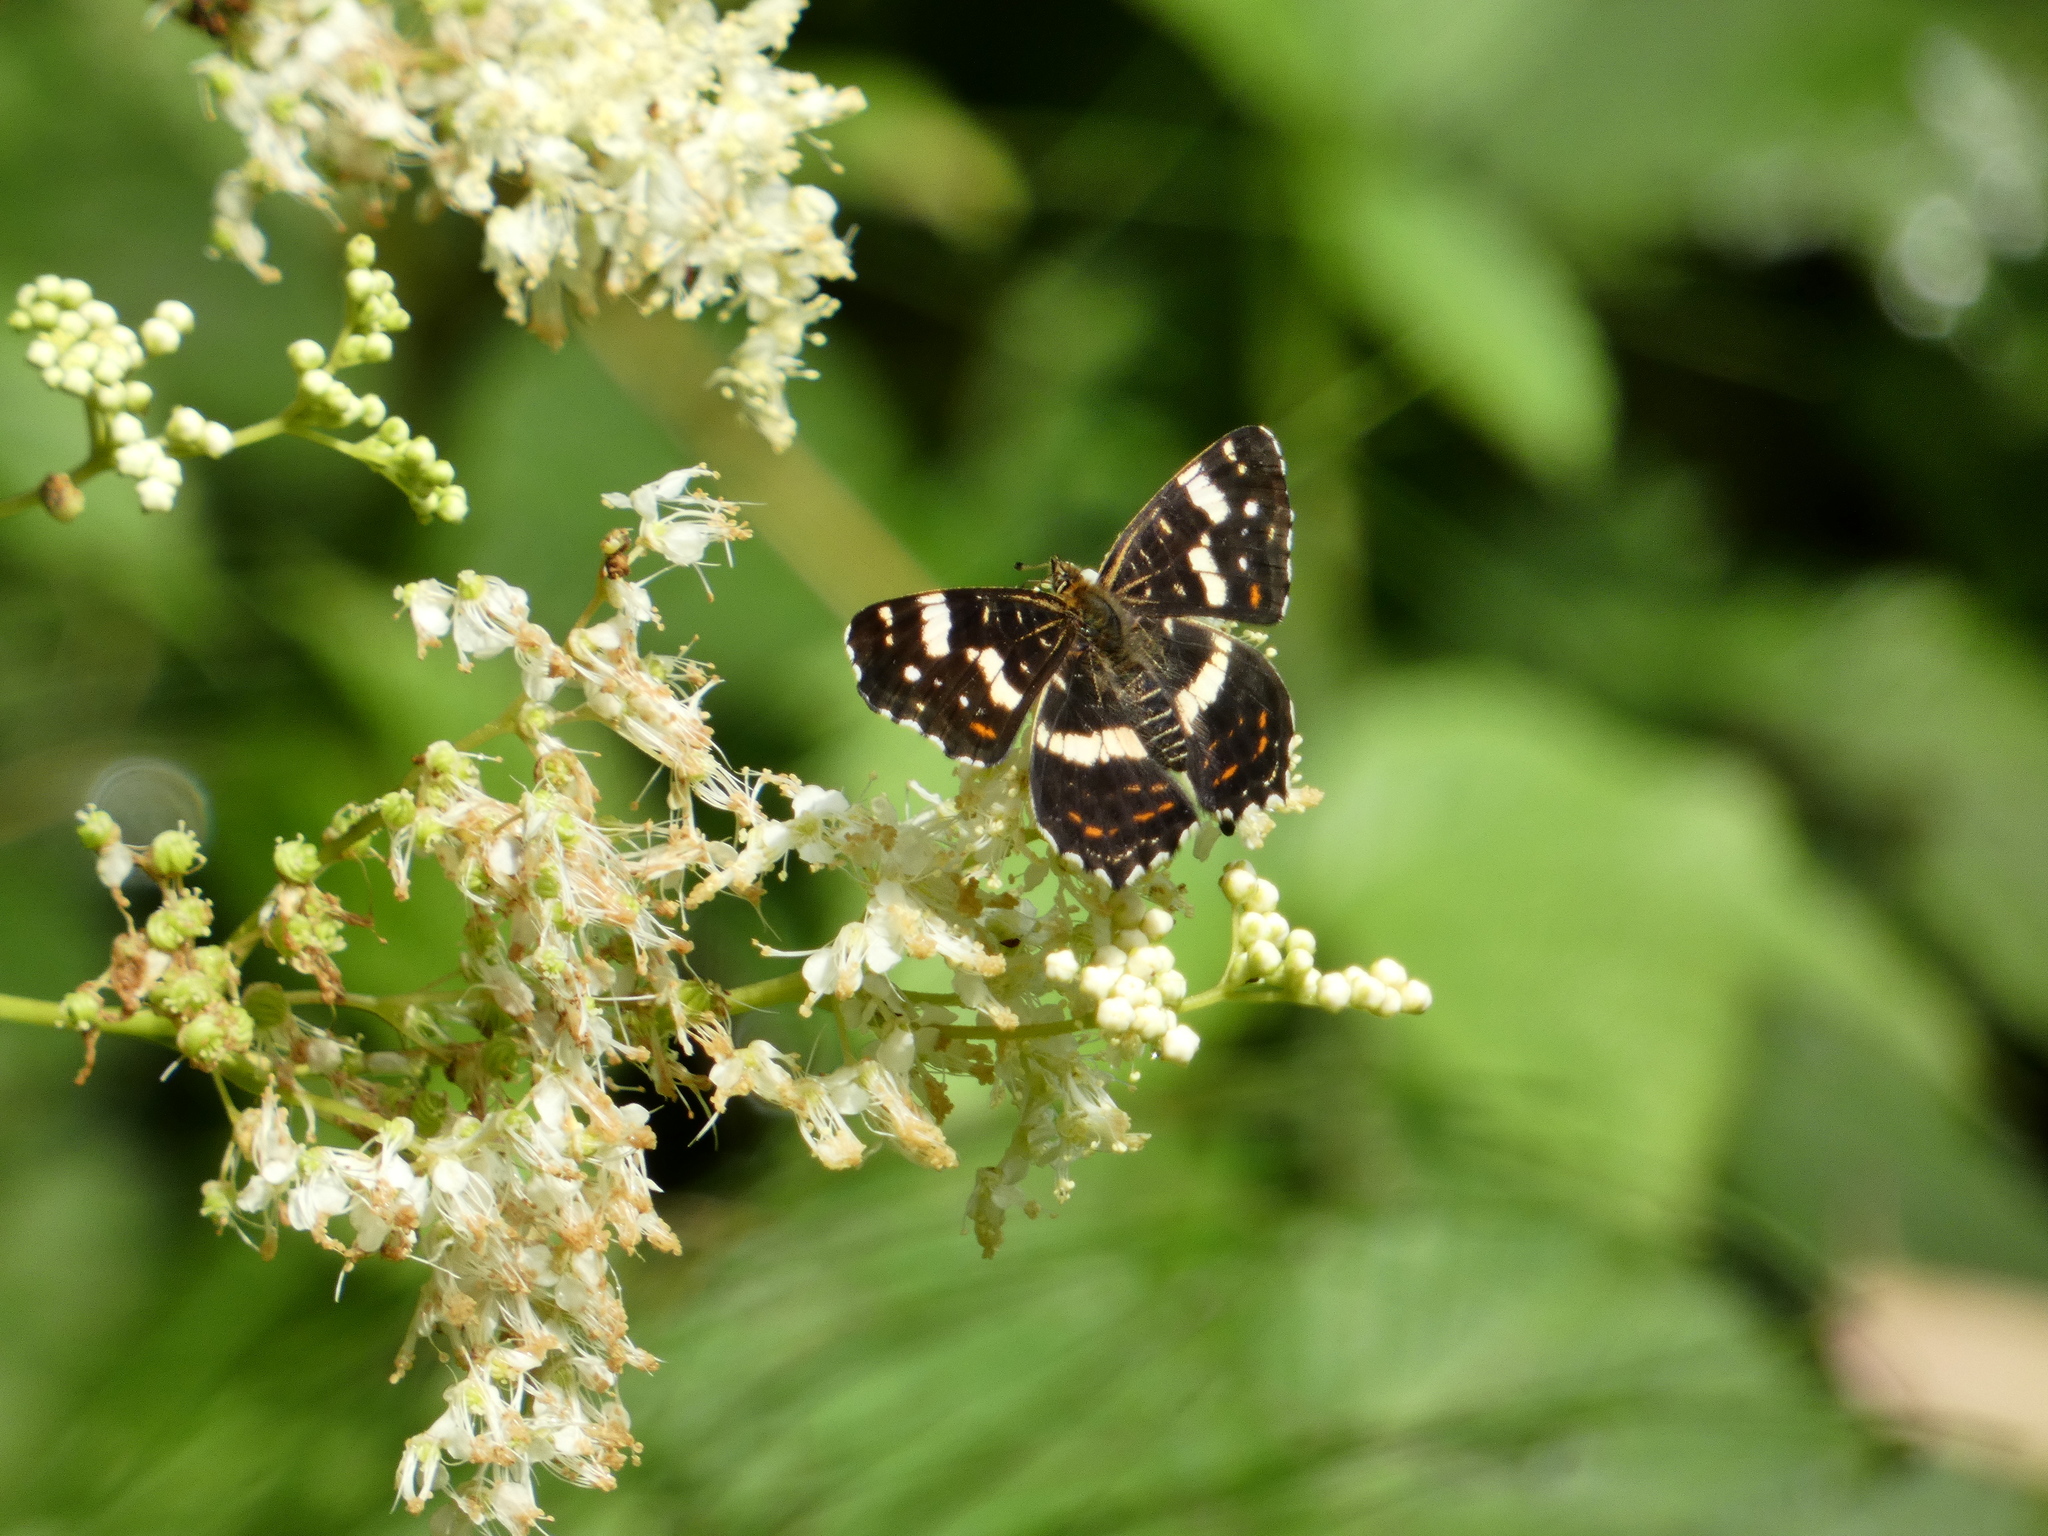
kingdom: Animalia
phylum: Arthropoda
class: Insecta
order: Lepidoptera
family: Nymphalidae
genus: Araschnia
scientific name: Araschnia levana
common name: Map butterfly
